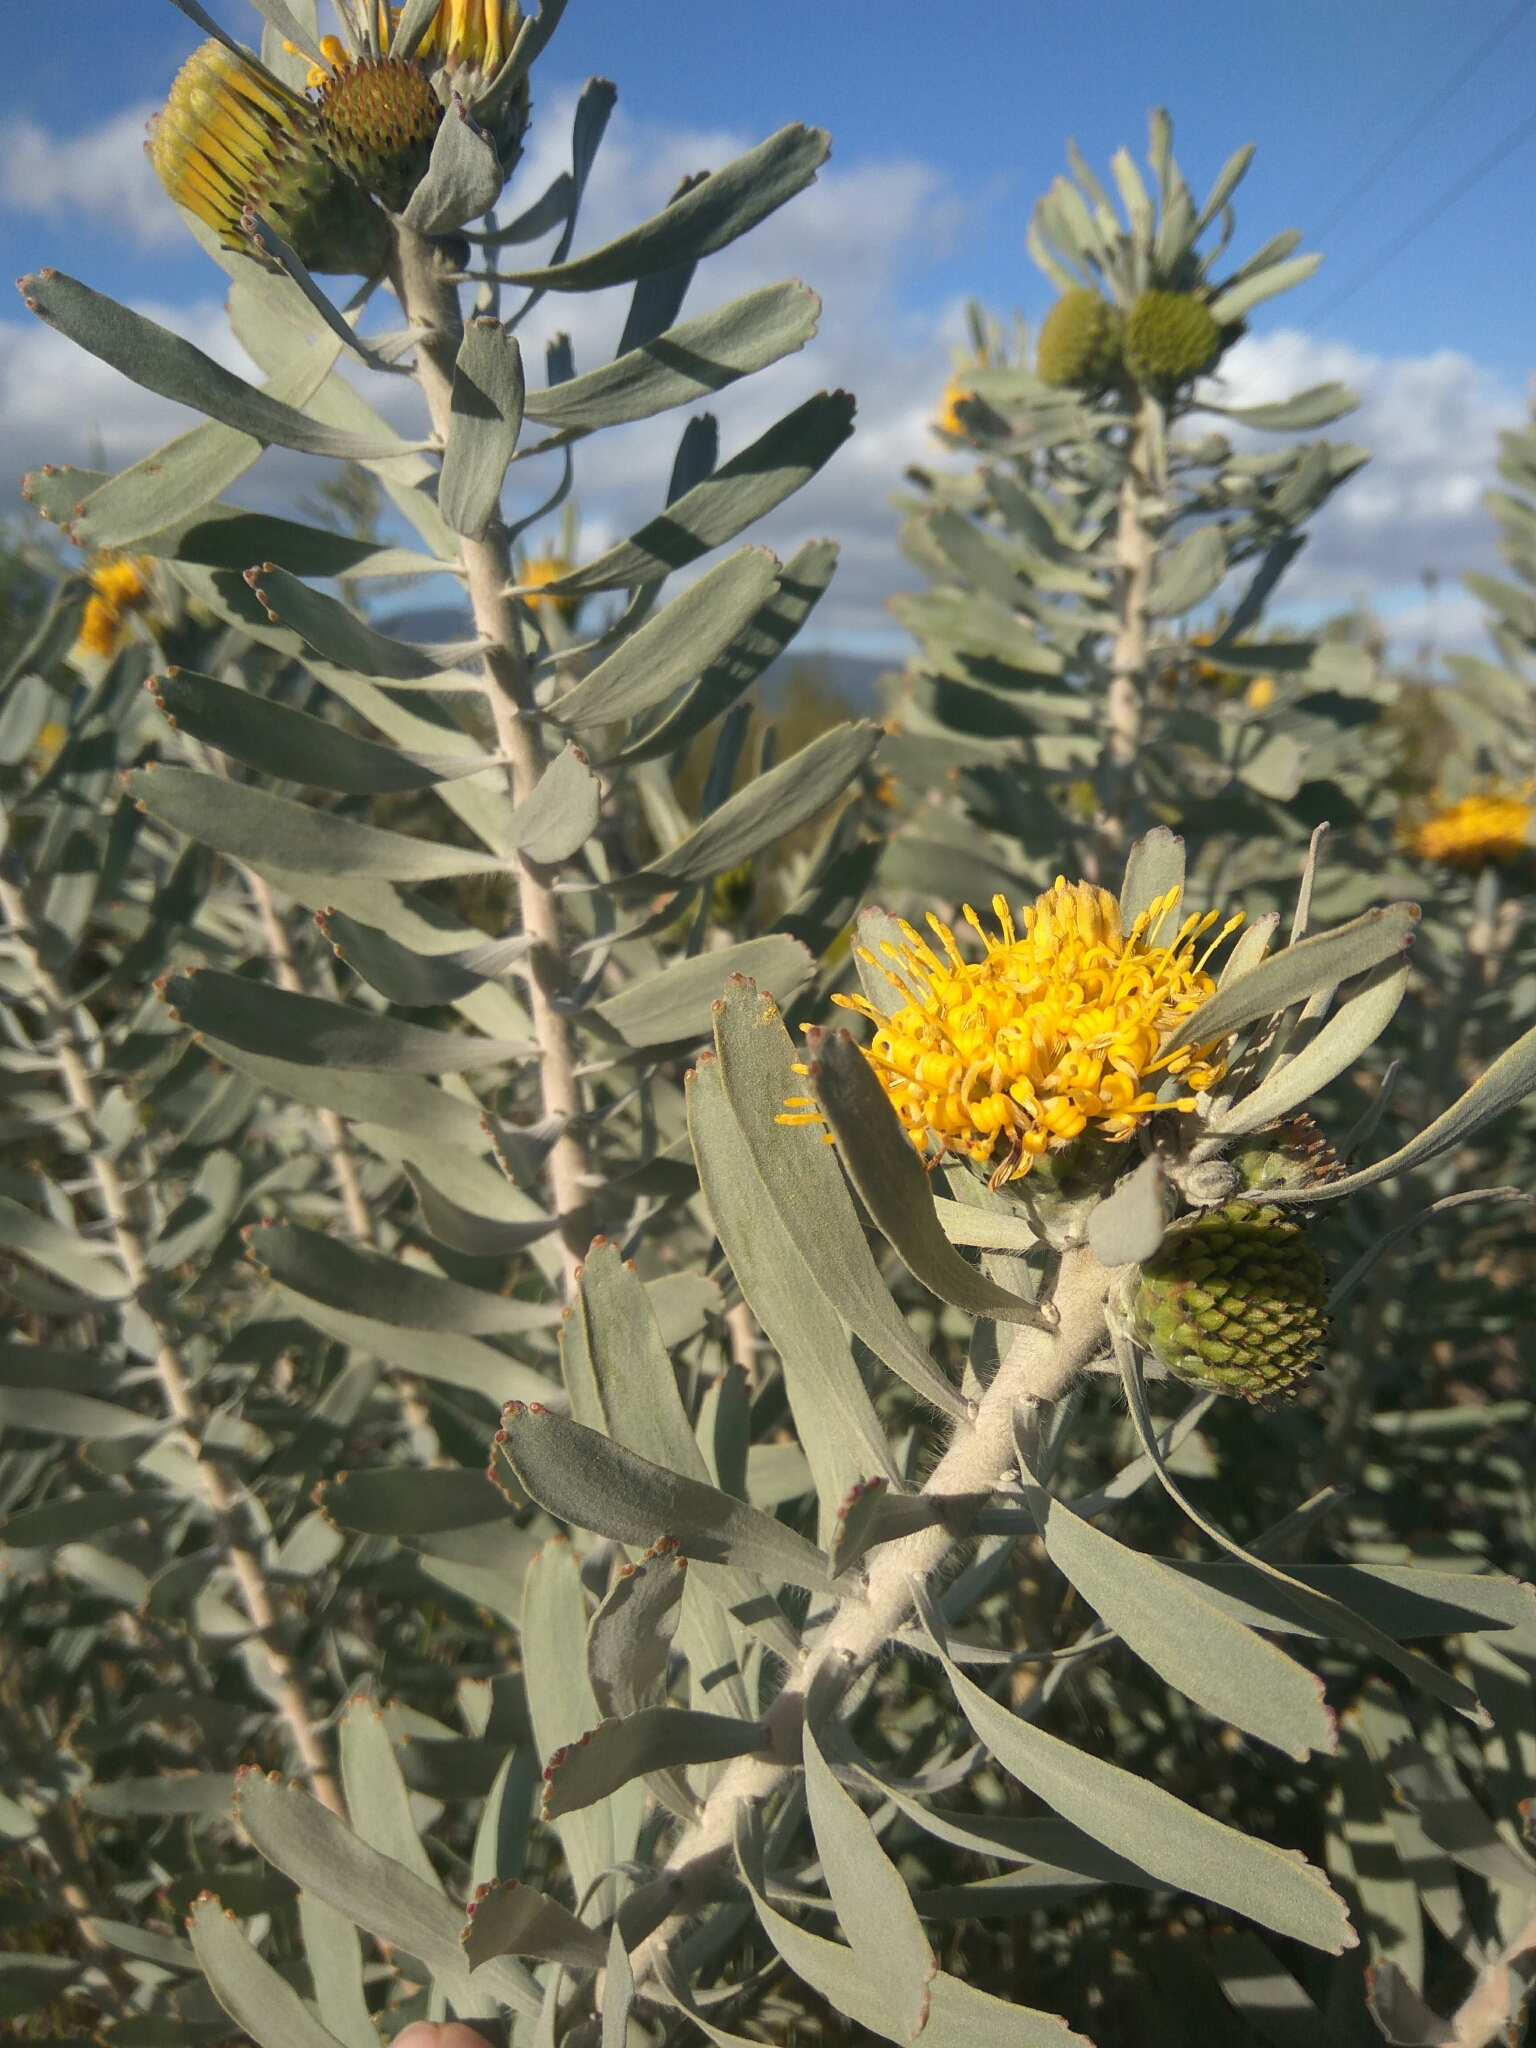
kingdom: Plantae
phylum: Tracheophyta
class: Magnoliopsida
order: Proteales
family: Proteaceae
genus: Leucospermum
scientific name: Leucospermum rodolentum
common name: Pincushion
